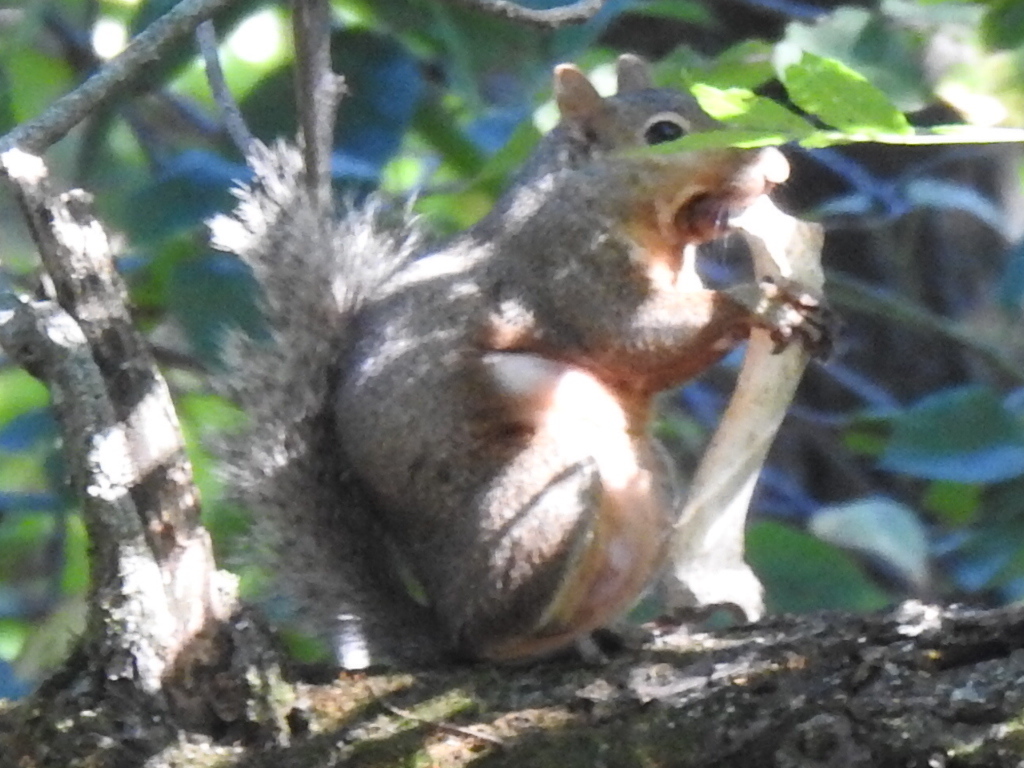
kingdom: Animalia
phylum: Chordata
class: Mammalia
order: Rodentia
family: Sciuridae
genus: Sciurus
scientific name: Sciurus carolinensis
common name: Eastern gray squirrel
